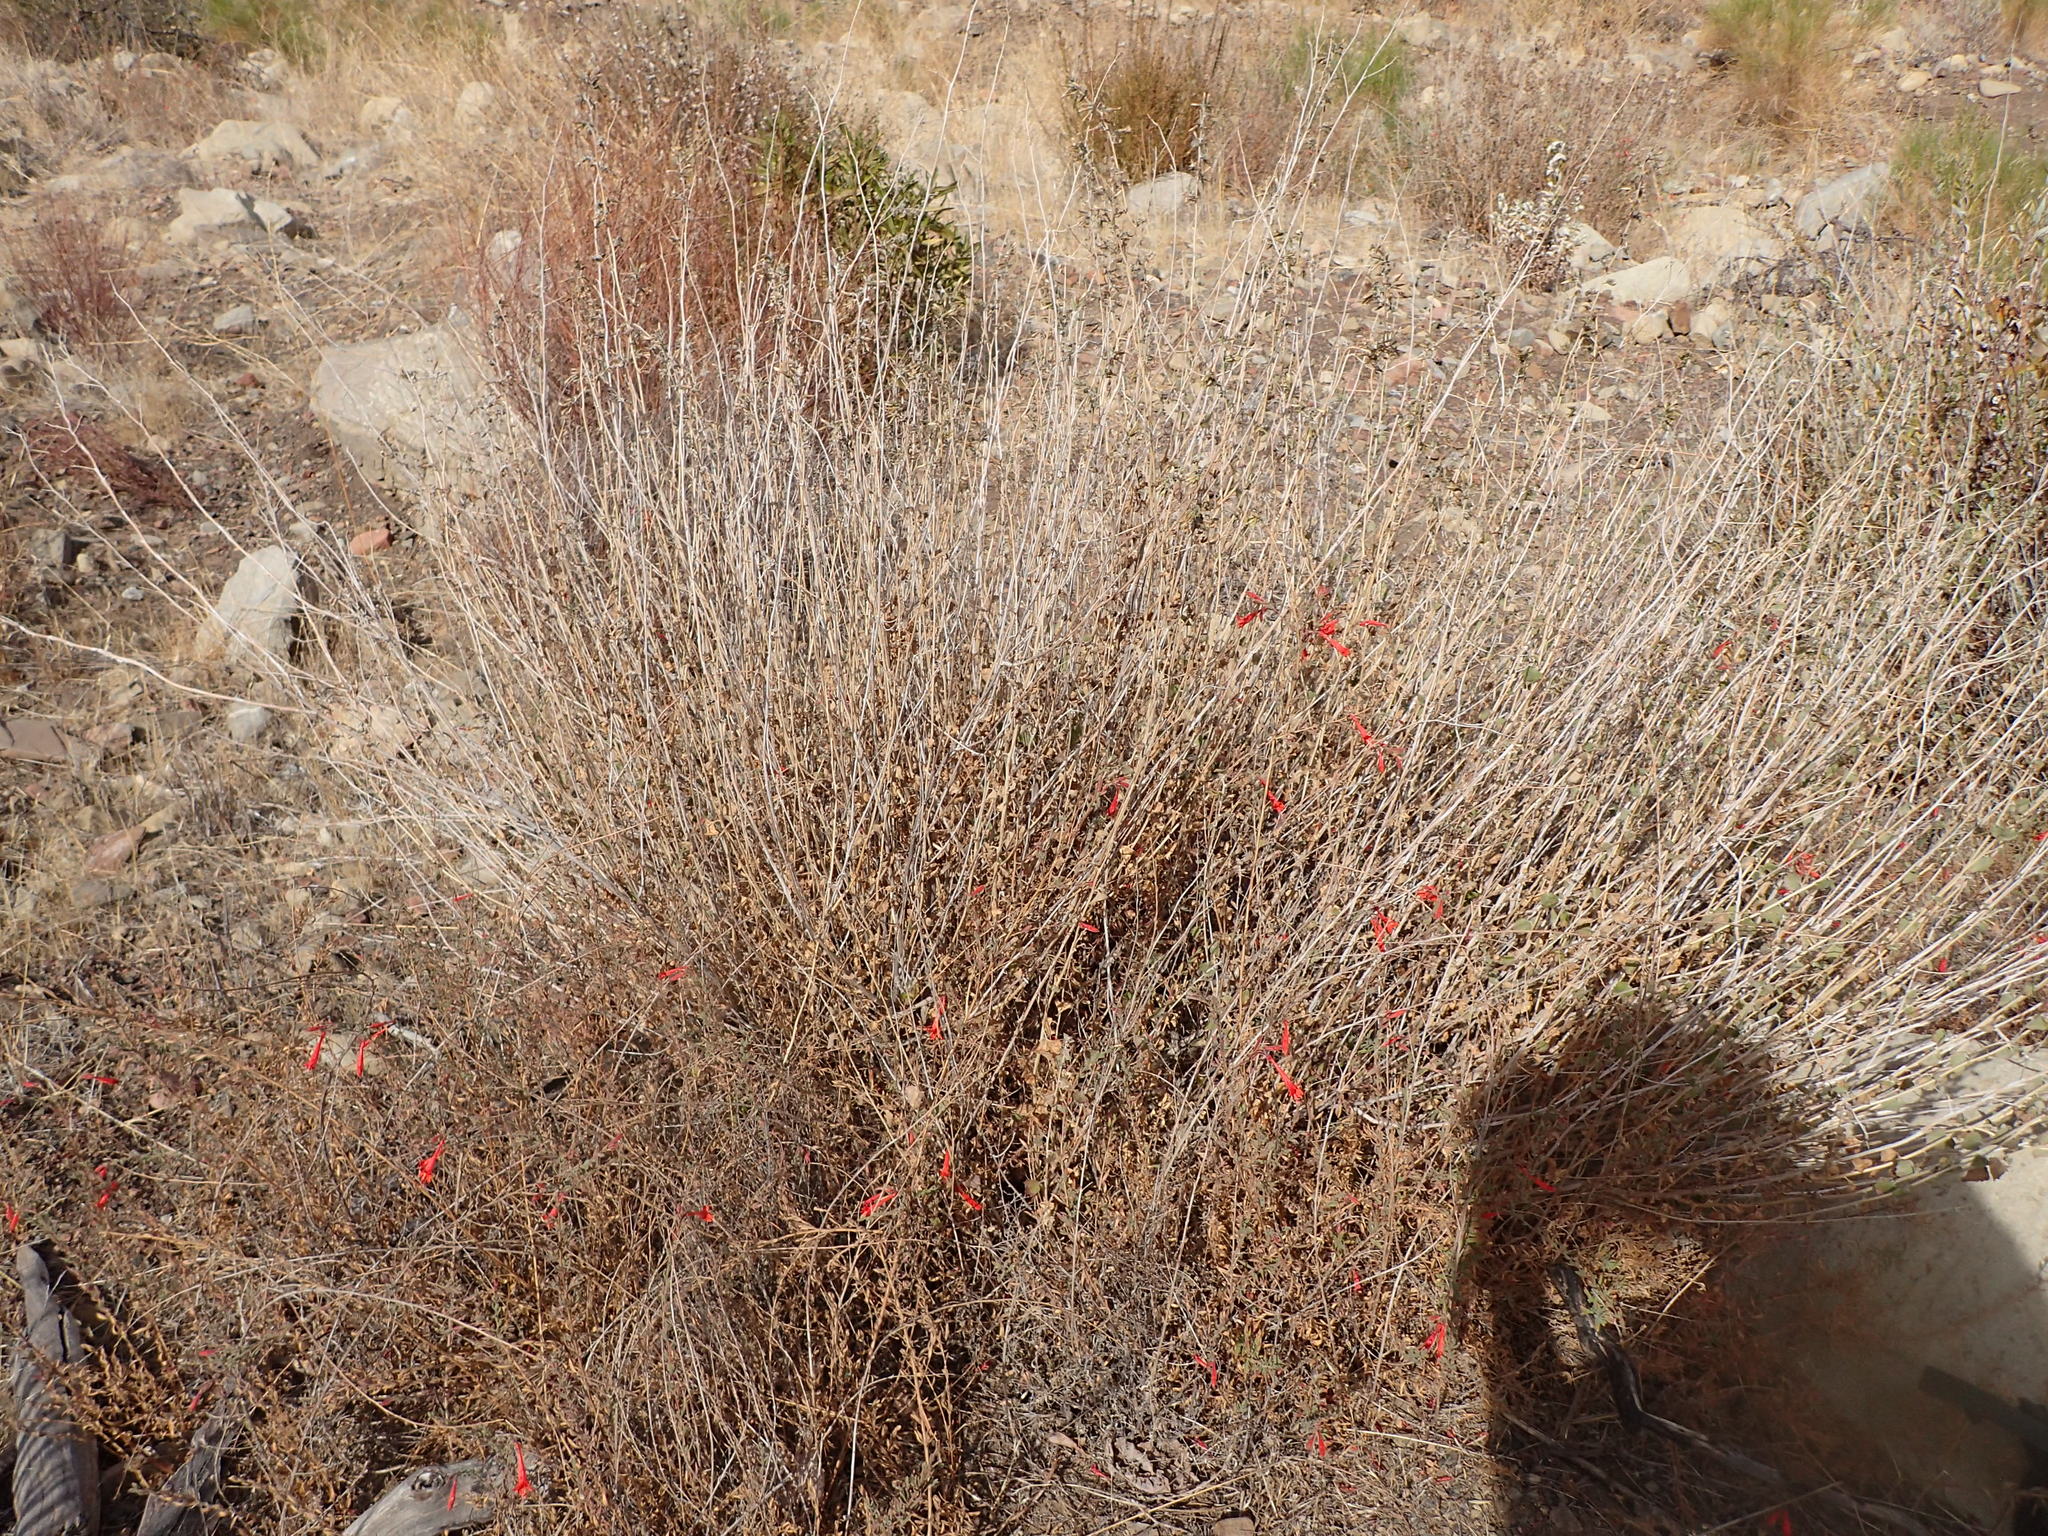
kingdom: Plantae
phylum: Tracheophyta
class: Magnoliopsida
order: Asterales
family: Asteraceae
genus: Brickellia
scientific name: Brickellia californica
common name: California brickellbush
